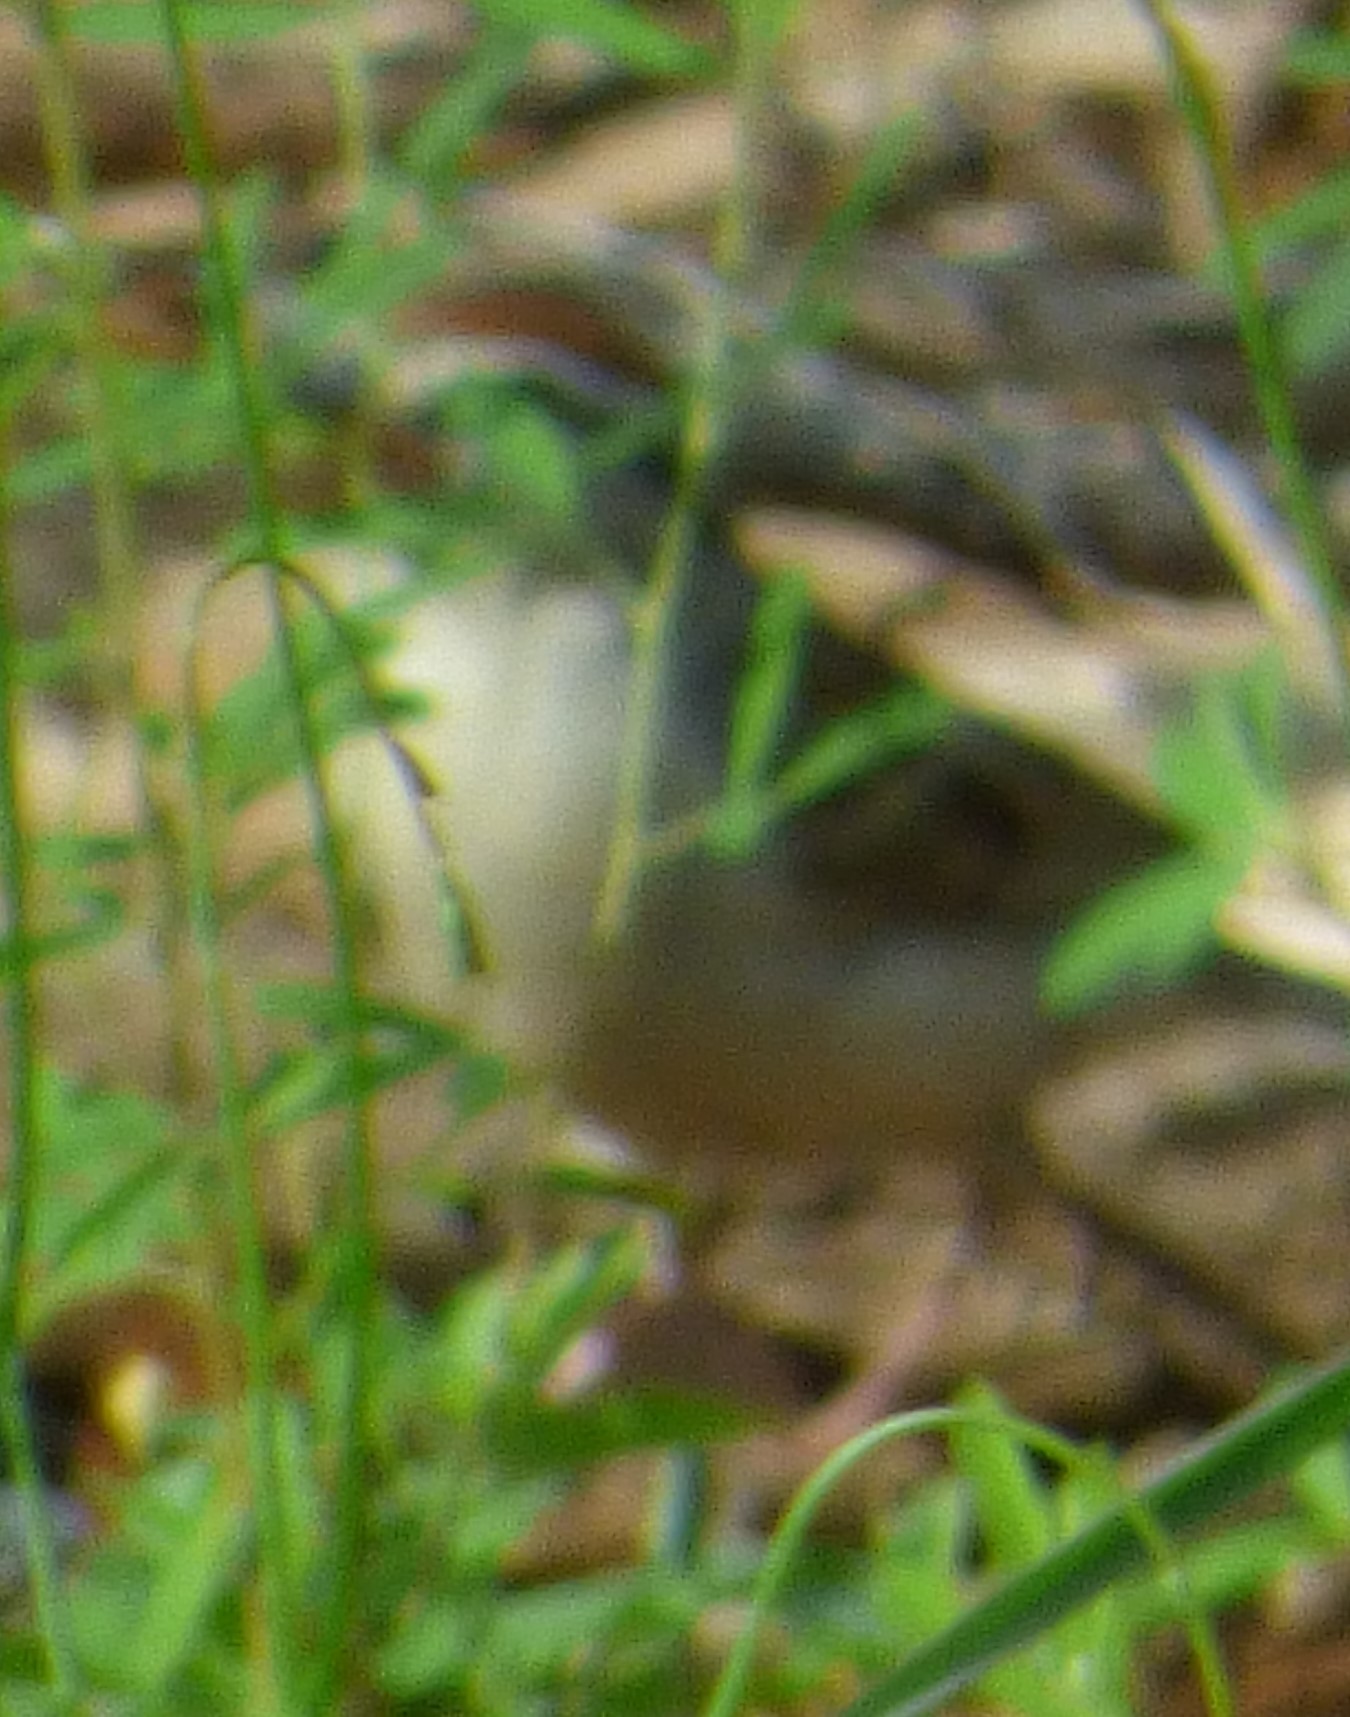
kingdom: Animalia
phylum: Chordata
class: Aves
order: Passeriformes
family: Passerellidae
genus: Spizella
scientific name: Spizella passerina
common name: Chipping sparrow
